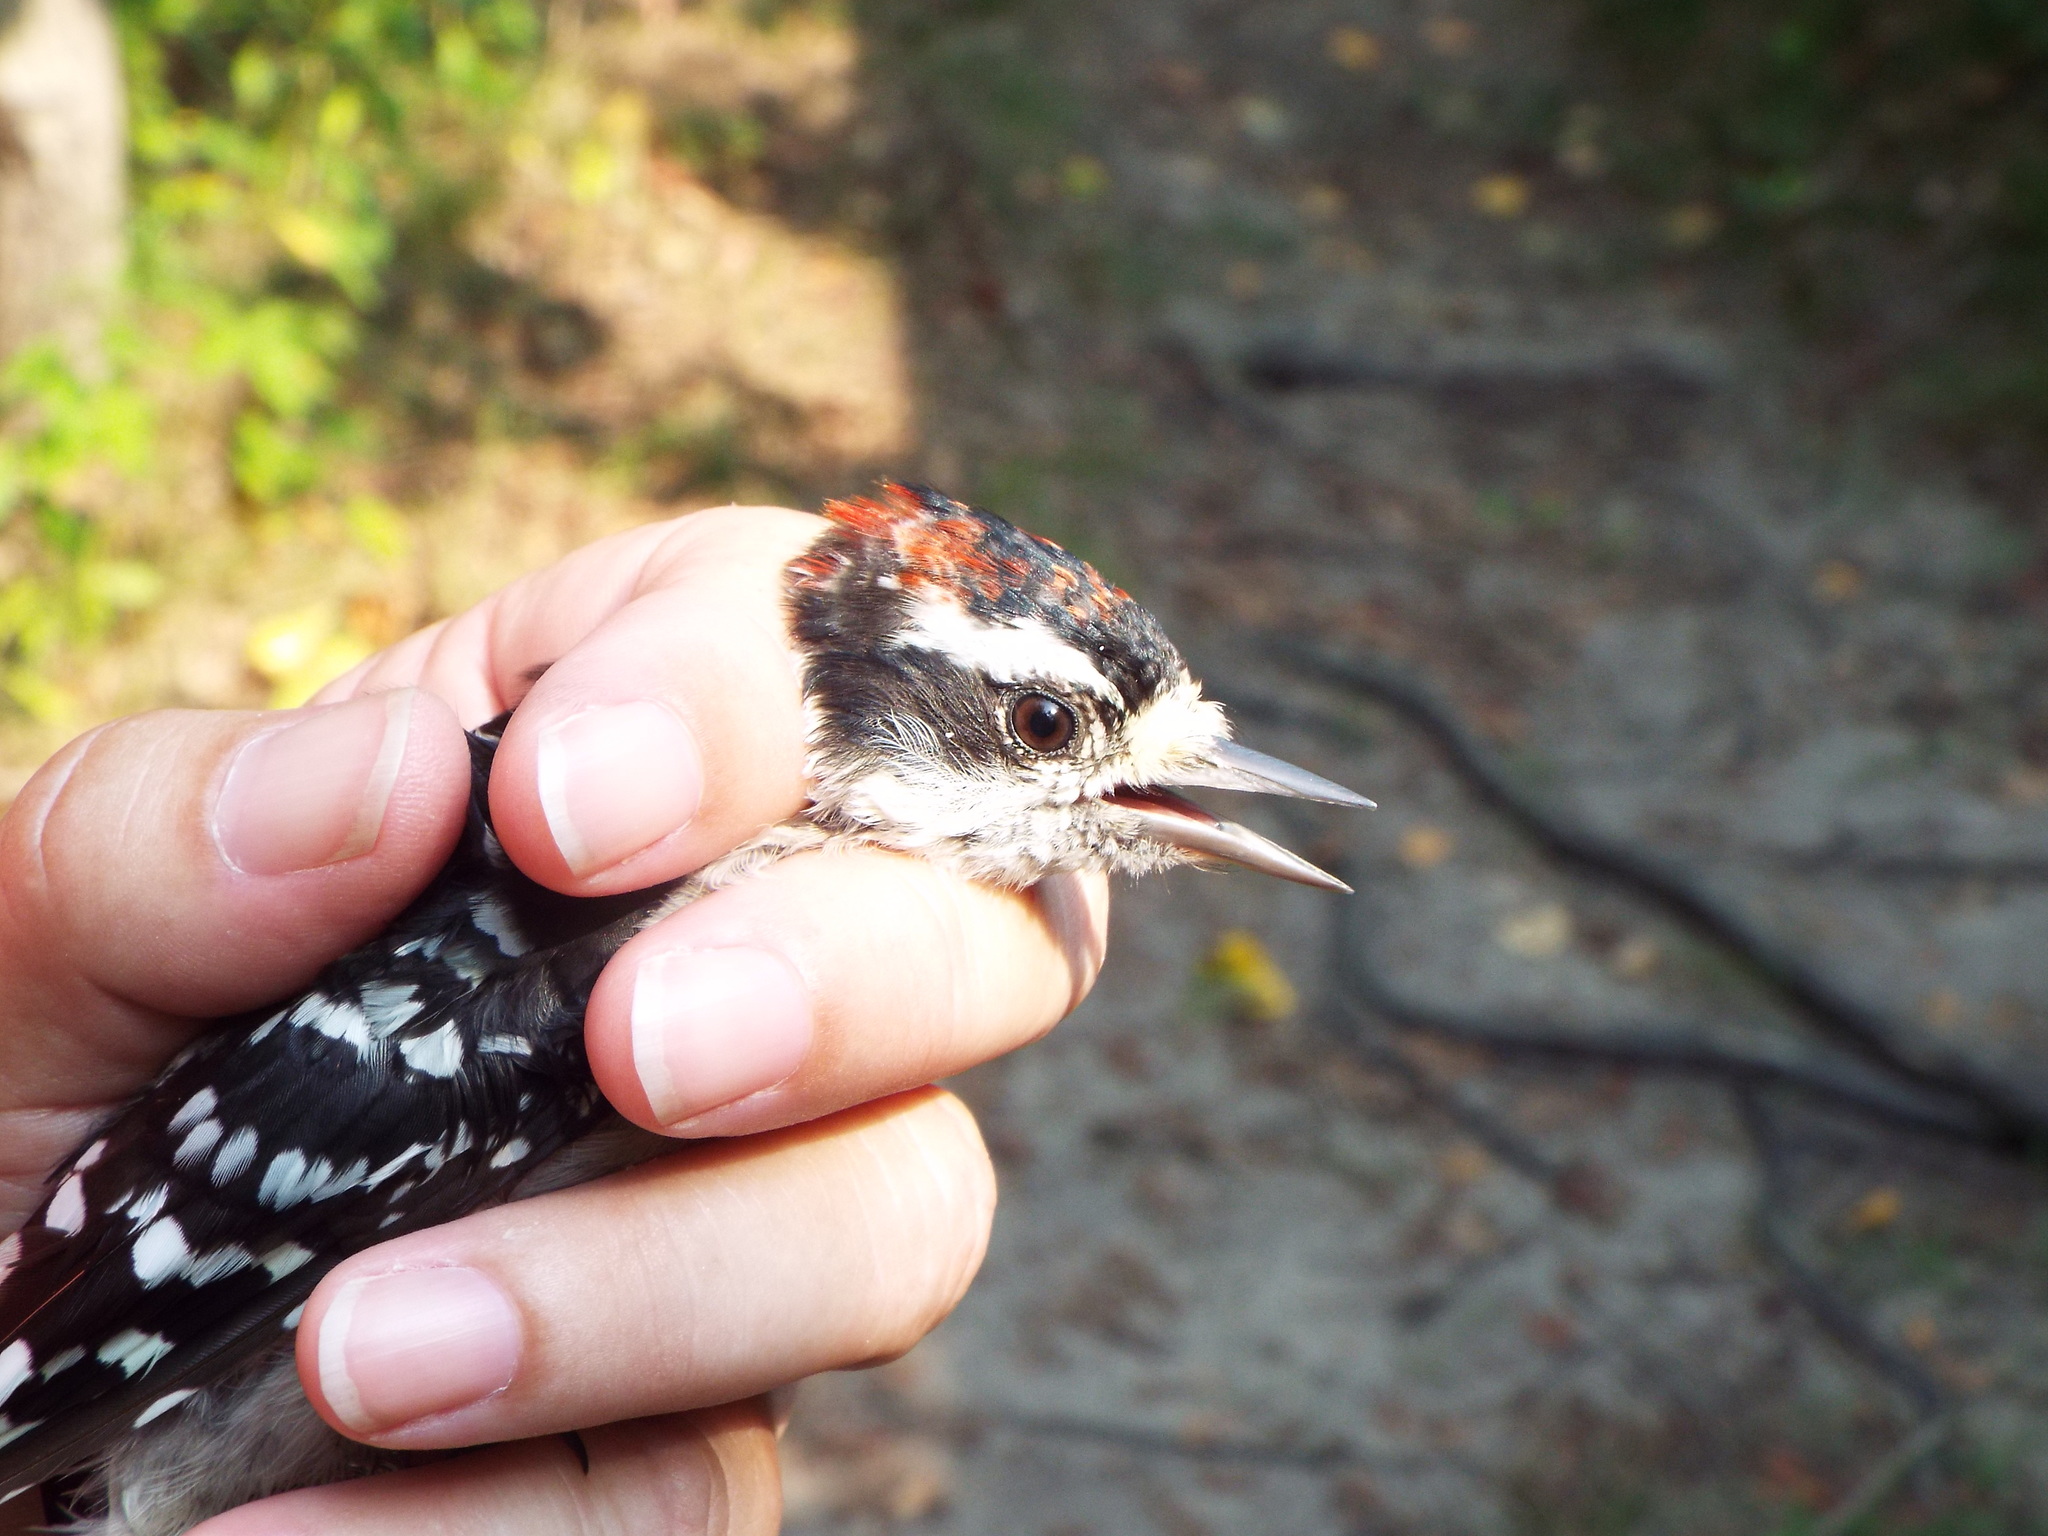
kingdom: Animalia
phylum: Chordata
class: Aves
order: Piciformes
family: Picidae
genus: Dryobates
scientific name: Dryobates pubescens
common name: Downy woodpecker
